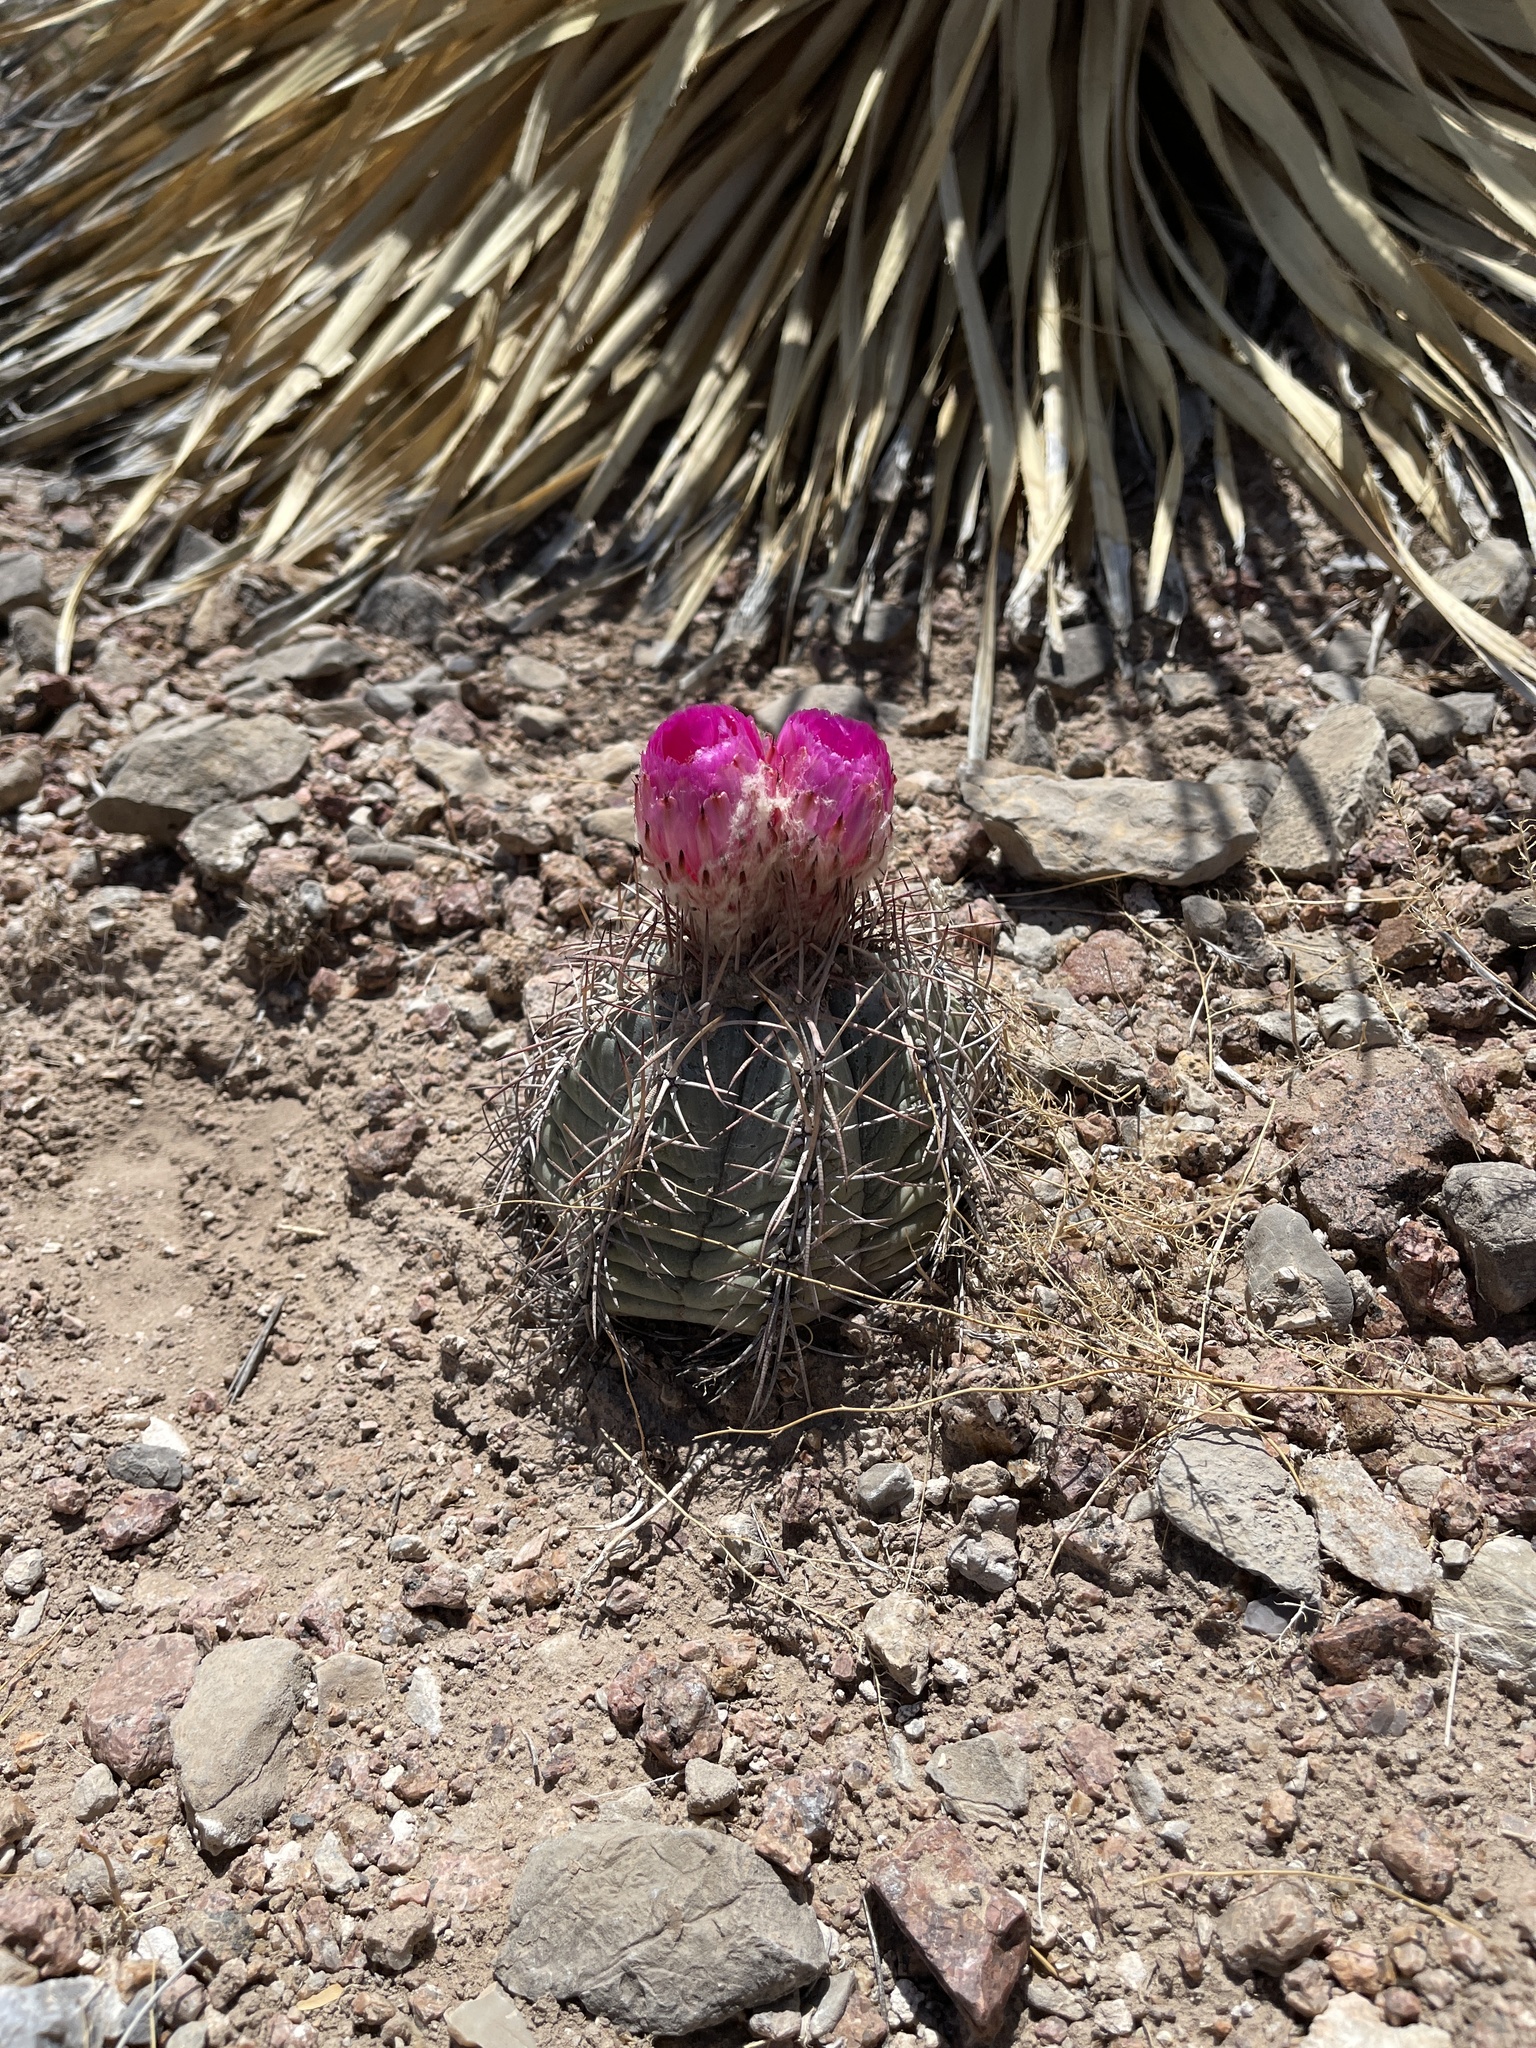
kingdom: Plantae
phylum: Tracheophyta
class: Magnoliopsida
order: Caryophyllales
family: Cactaceae
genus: Echinocactus
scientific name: Echinocactus horizonthalonius
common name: Devilshead
